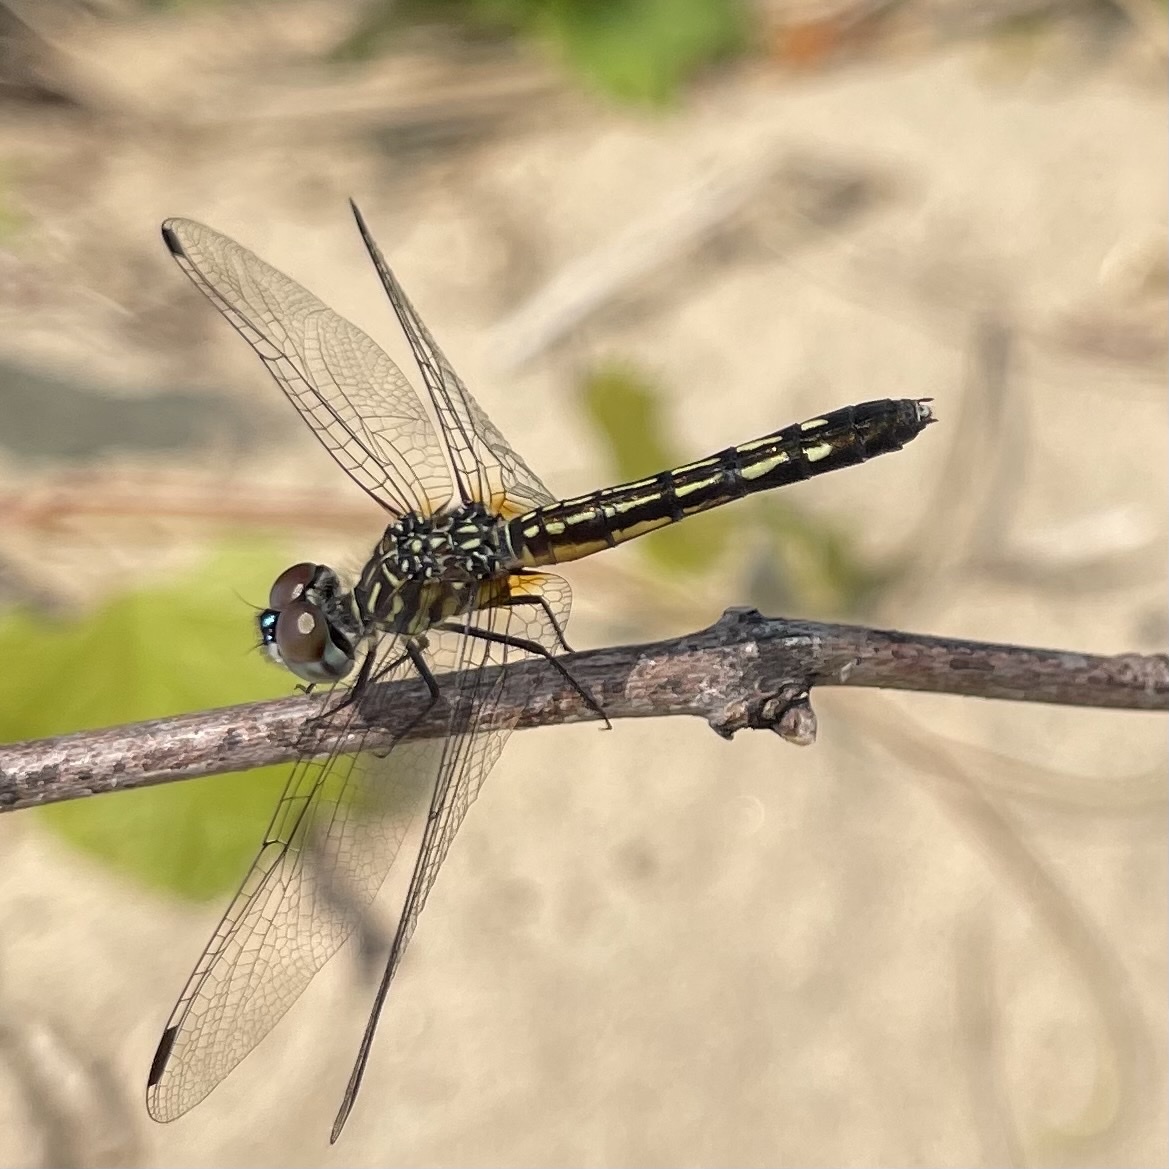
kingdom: Animalia
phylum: Arthropoda
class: Insecta
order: Odonata
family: Libellulidae
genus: Pachydiplax
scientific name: Pachydiplax longipennis
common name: Blue dasher
